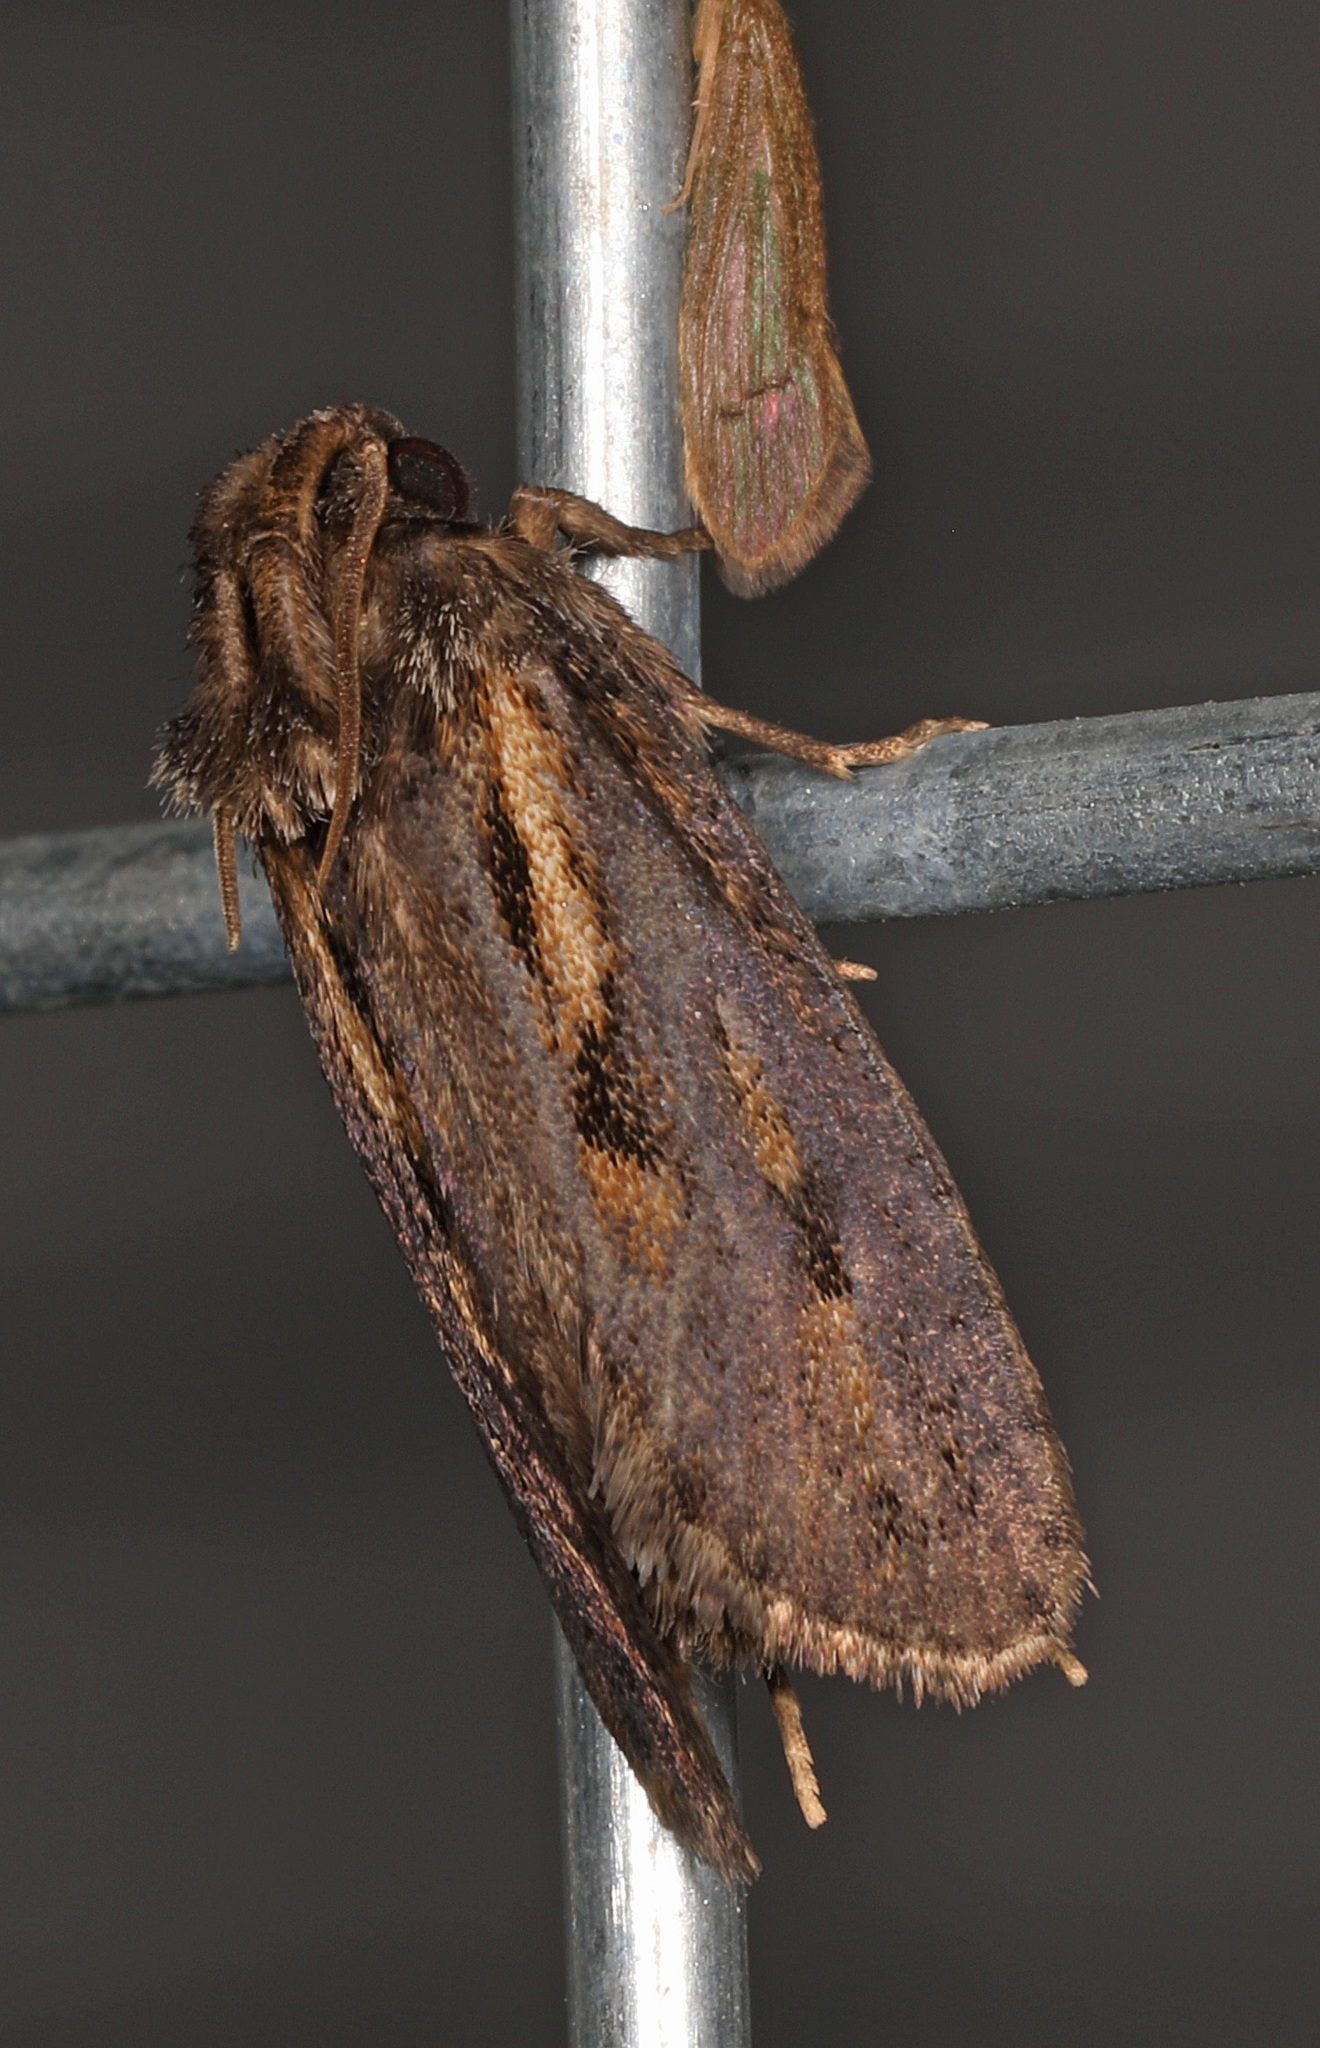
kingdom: Animalia
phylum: Arthropoda
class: Insecta
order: Lepidoptera
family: Tineidae
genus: Acrolophus
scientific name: Acrolophus popeanella
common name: Clemens' grass tubeworm moth
